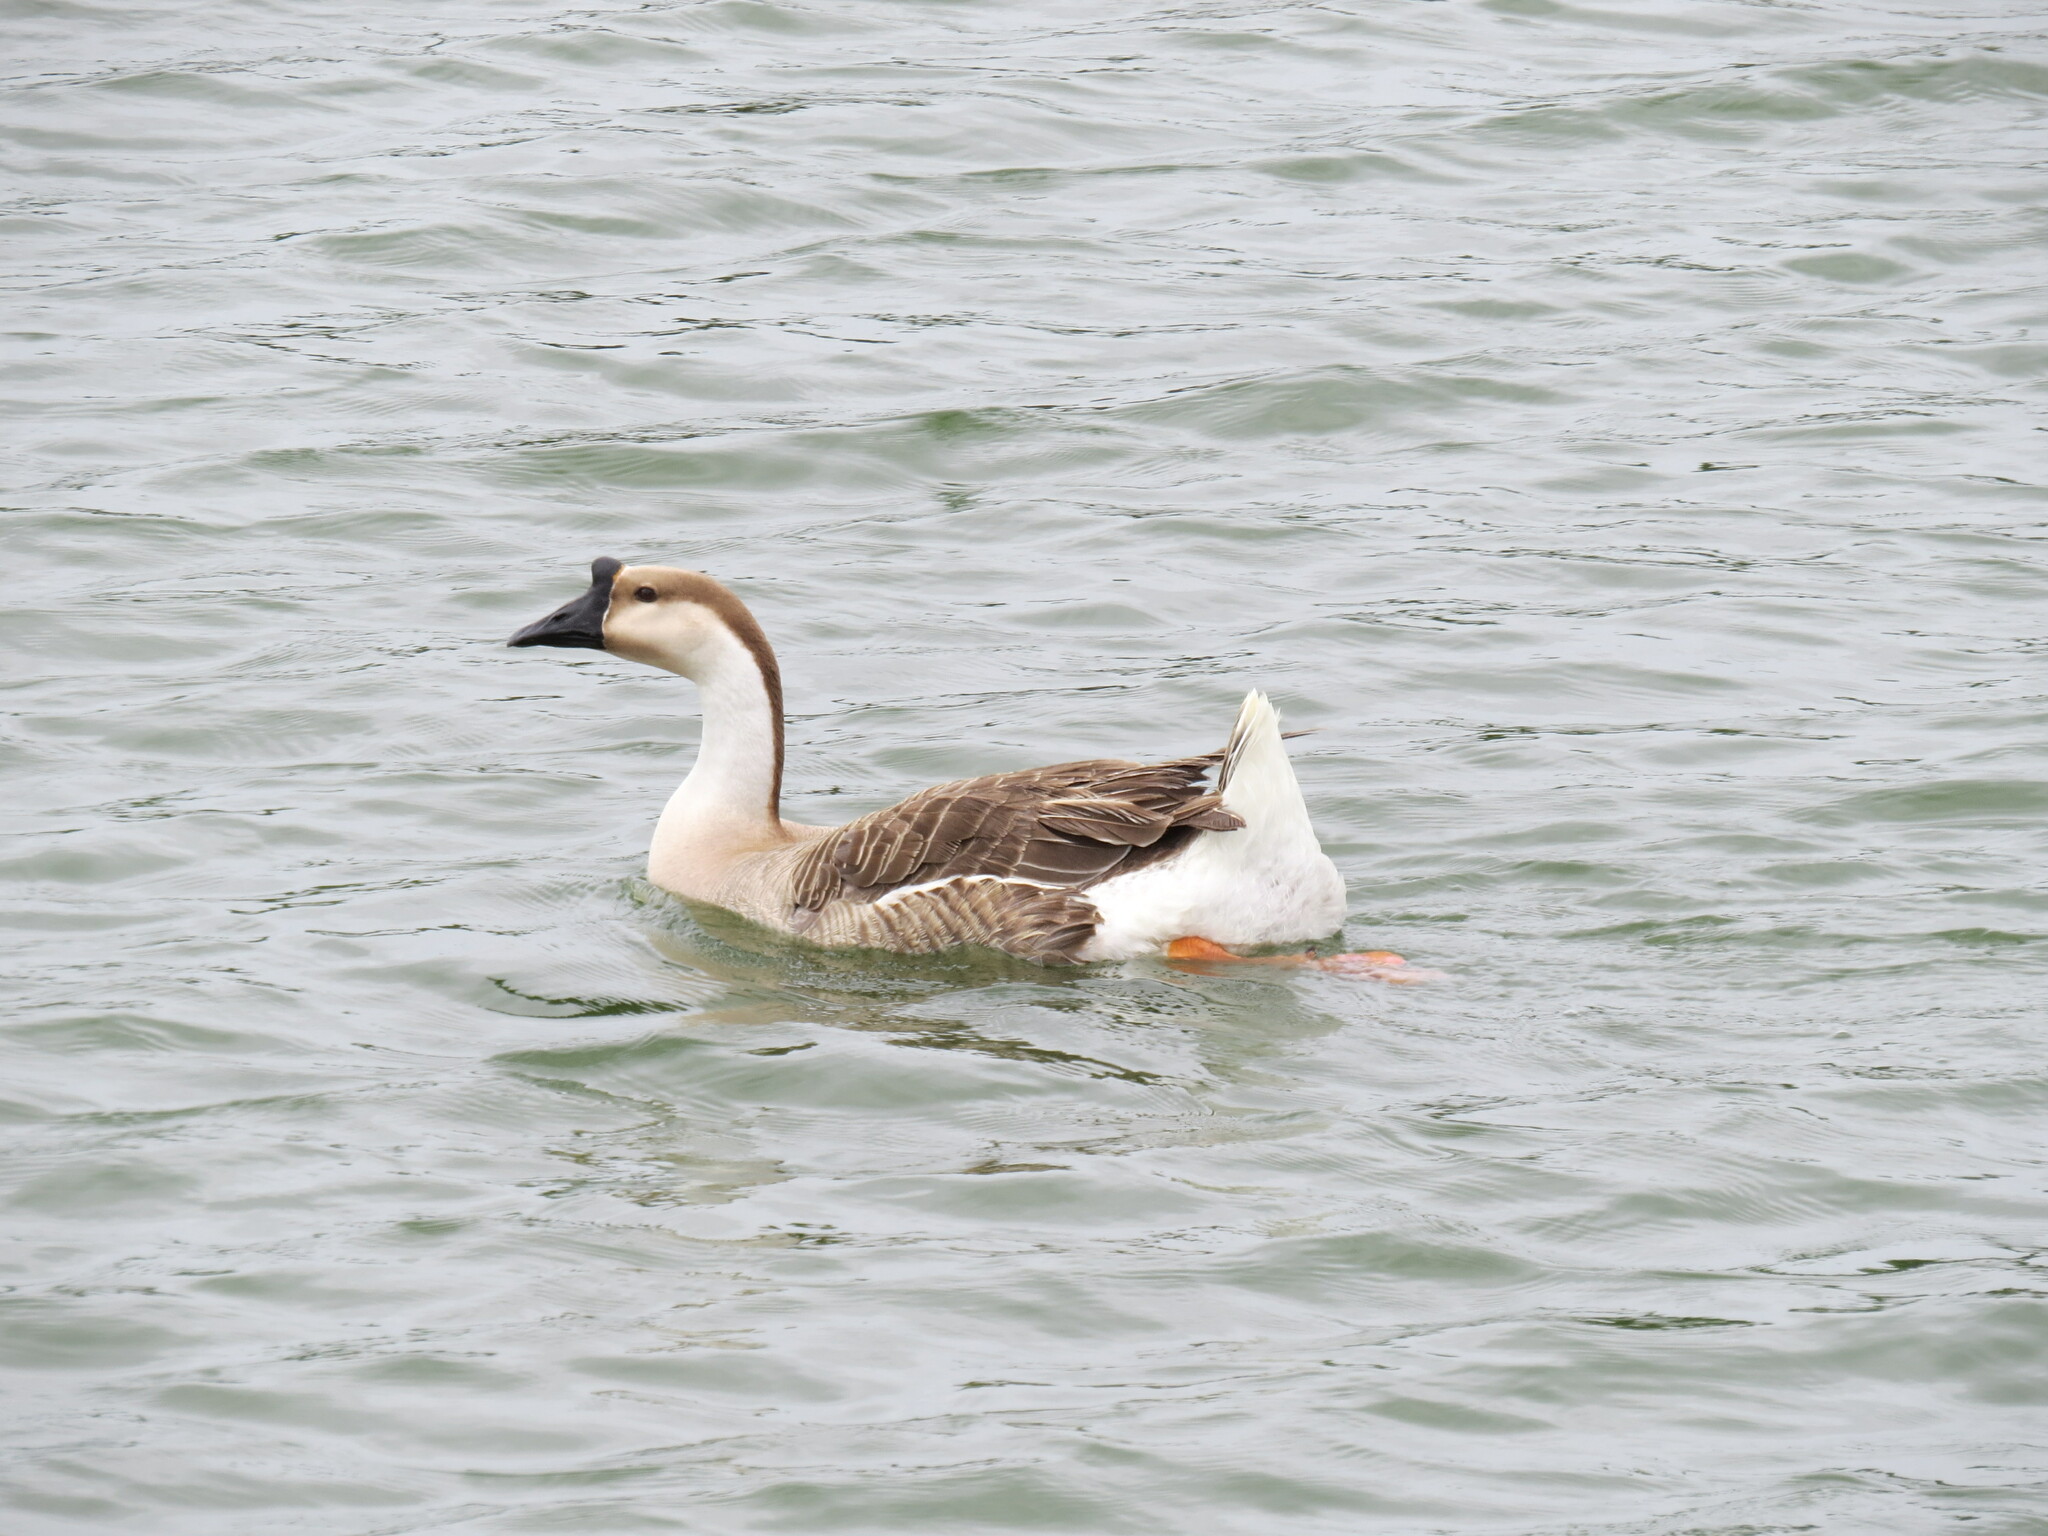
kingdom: Animalia
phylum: Chordata
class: Aves
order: Anseriformes
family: Anatidae
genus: Anser
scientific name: Anser cygnoides
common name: Swan goose
